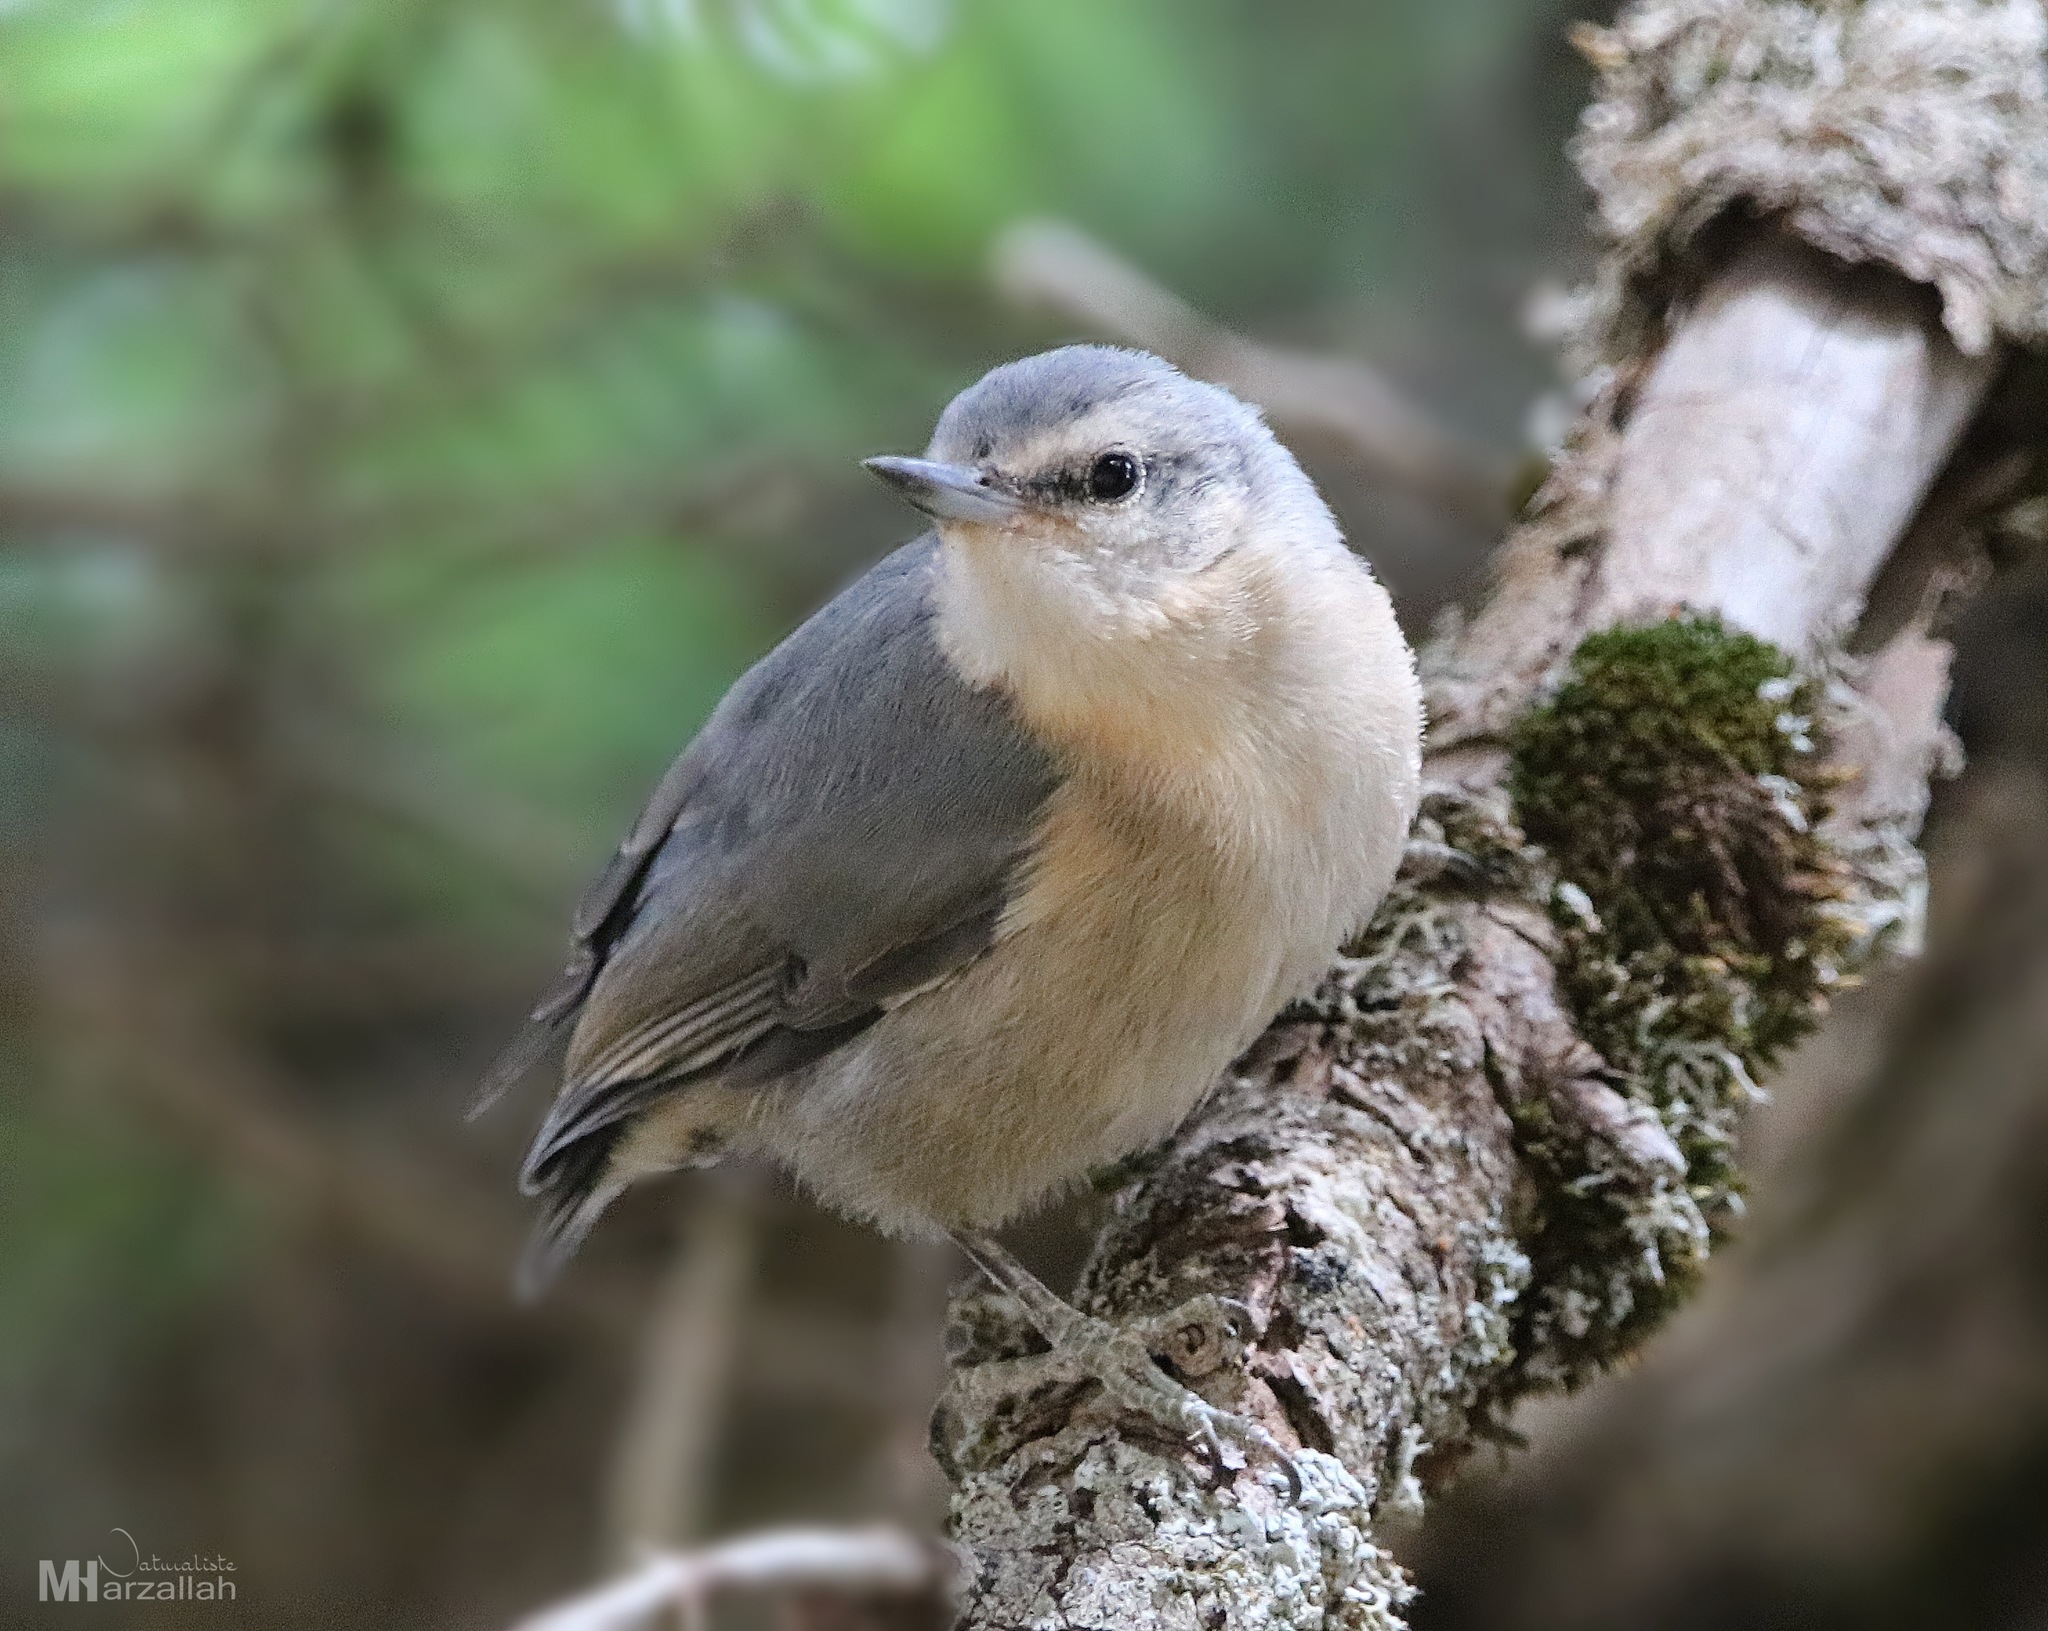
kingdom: Animalia
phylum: Chordata
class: Aves
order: Passeriformes
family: Sittidae
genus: Sitta
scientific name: Sitta ledanti
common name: Algerian nuthatch
